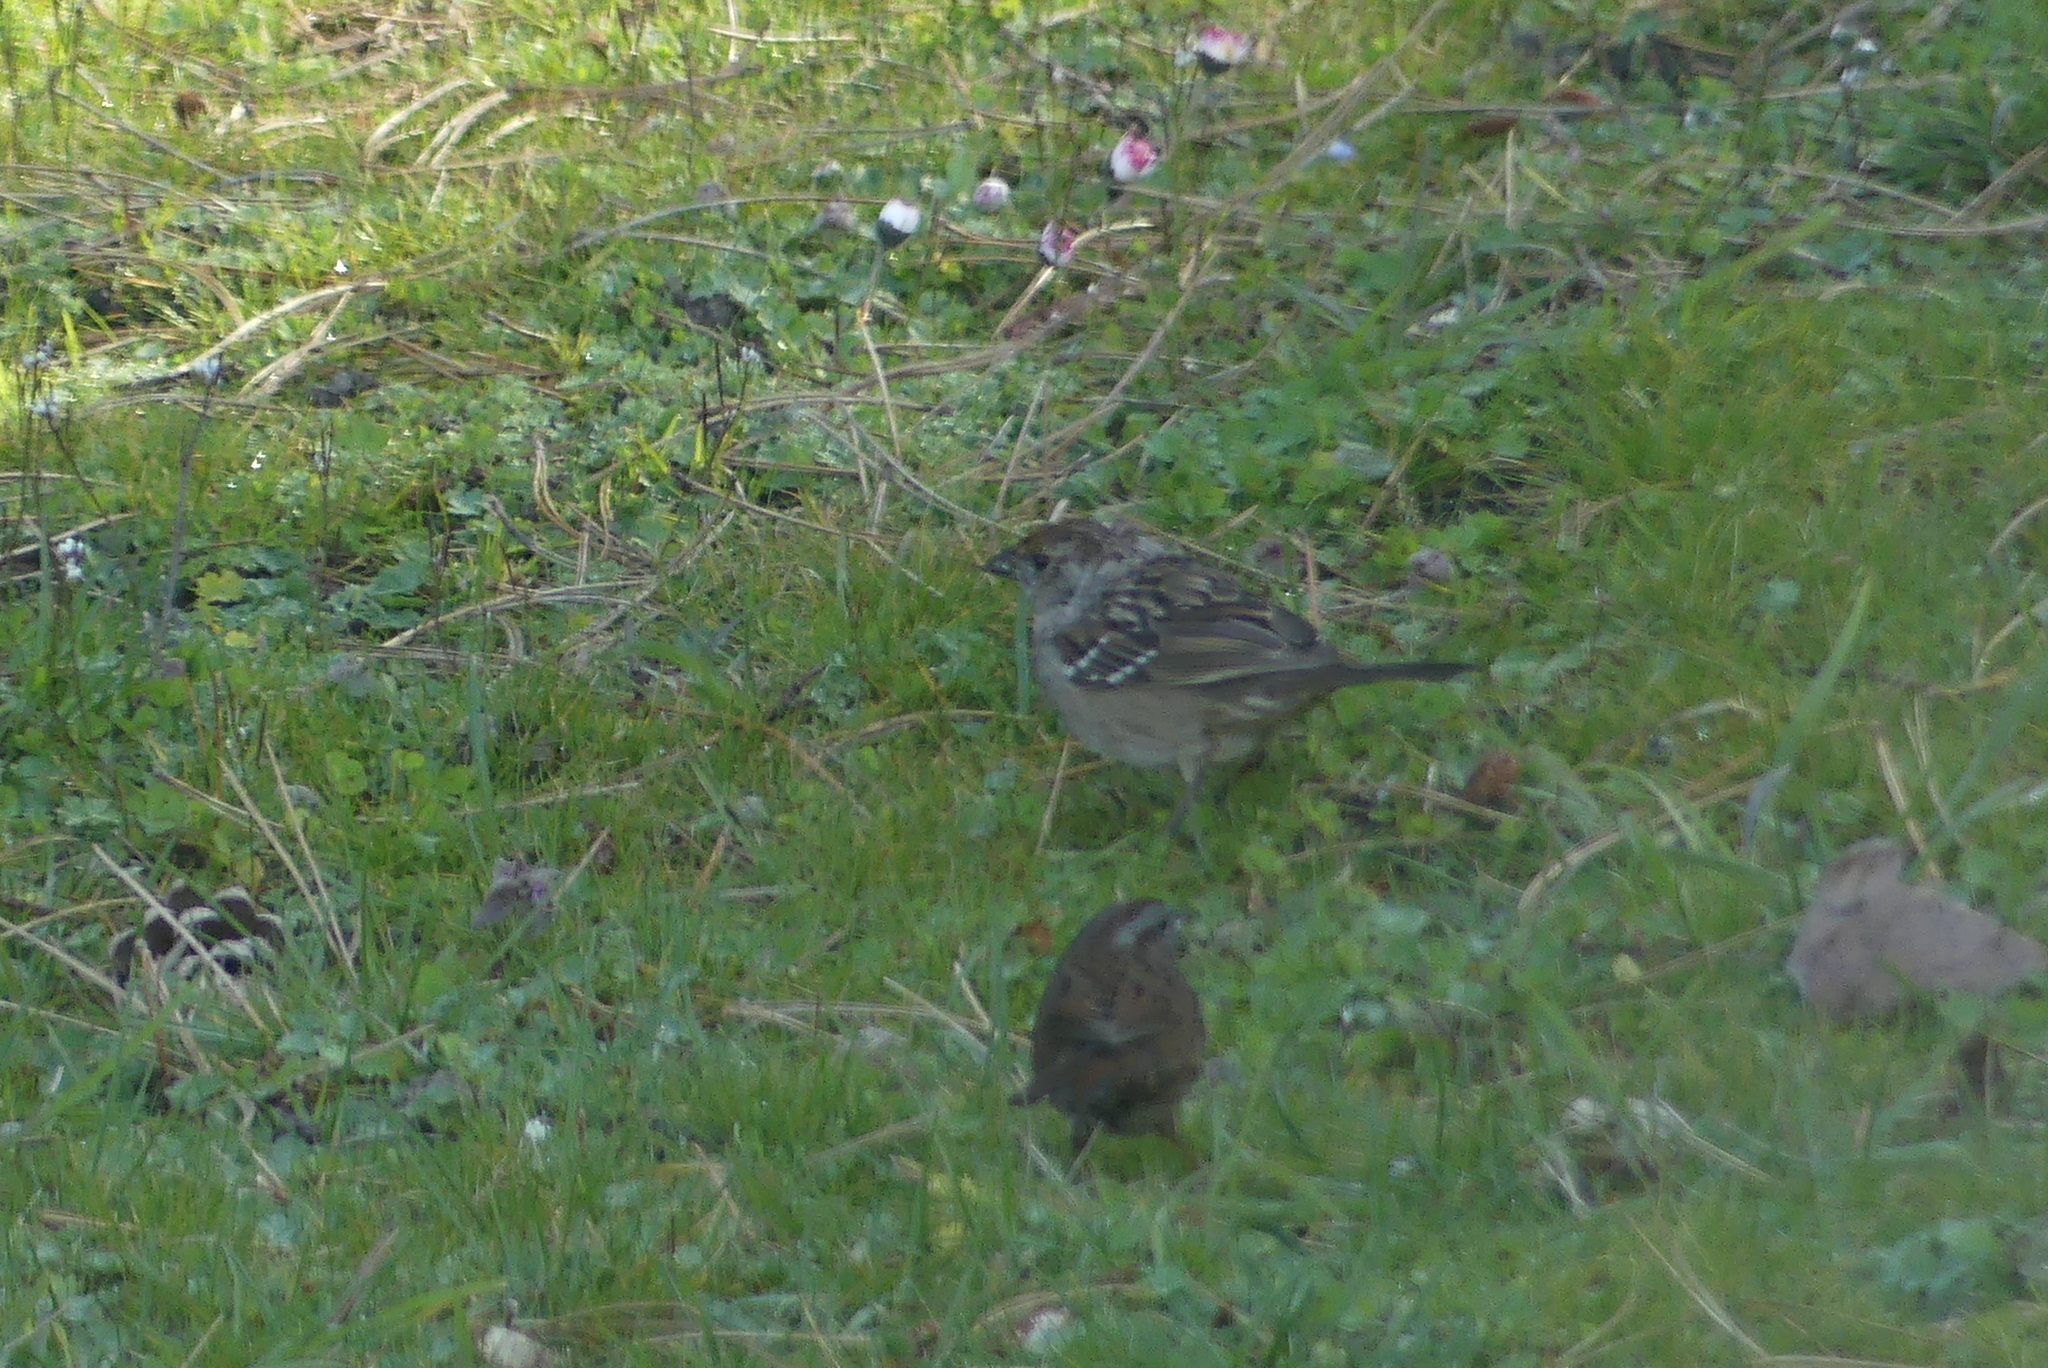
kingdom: Animalia
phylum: Chordata
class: Aves
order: Passeriformes
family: Passerellidae
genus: Zonotrichia
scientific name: Zonotrichia atricapilla
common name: Golden-crowned sparrow
